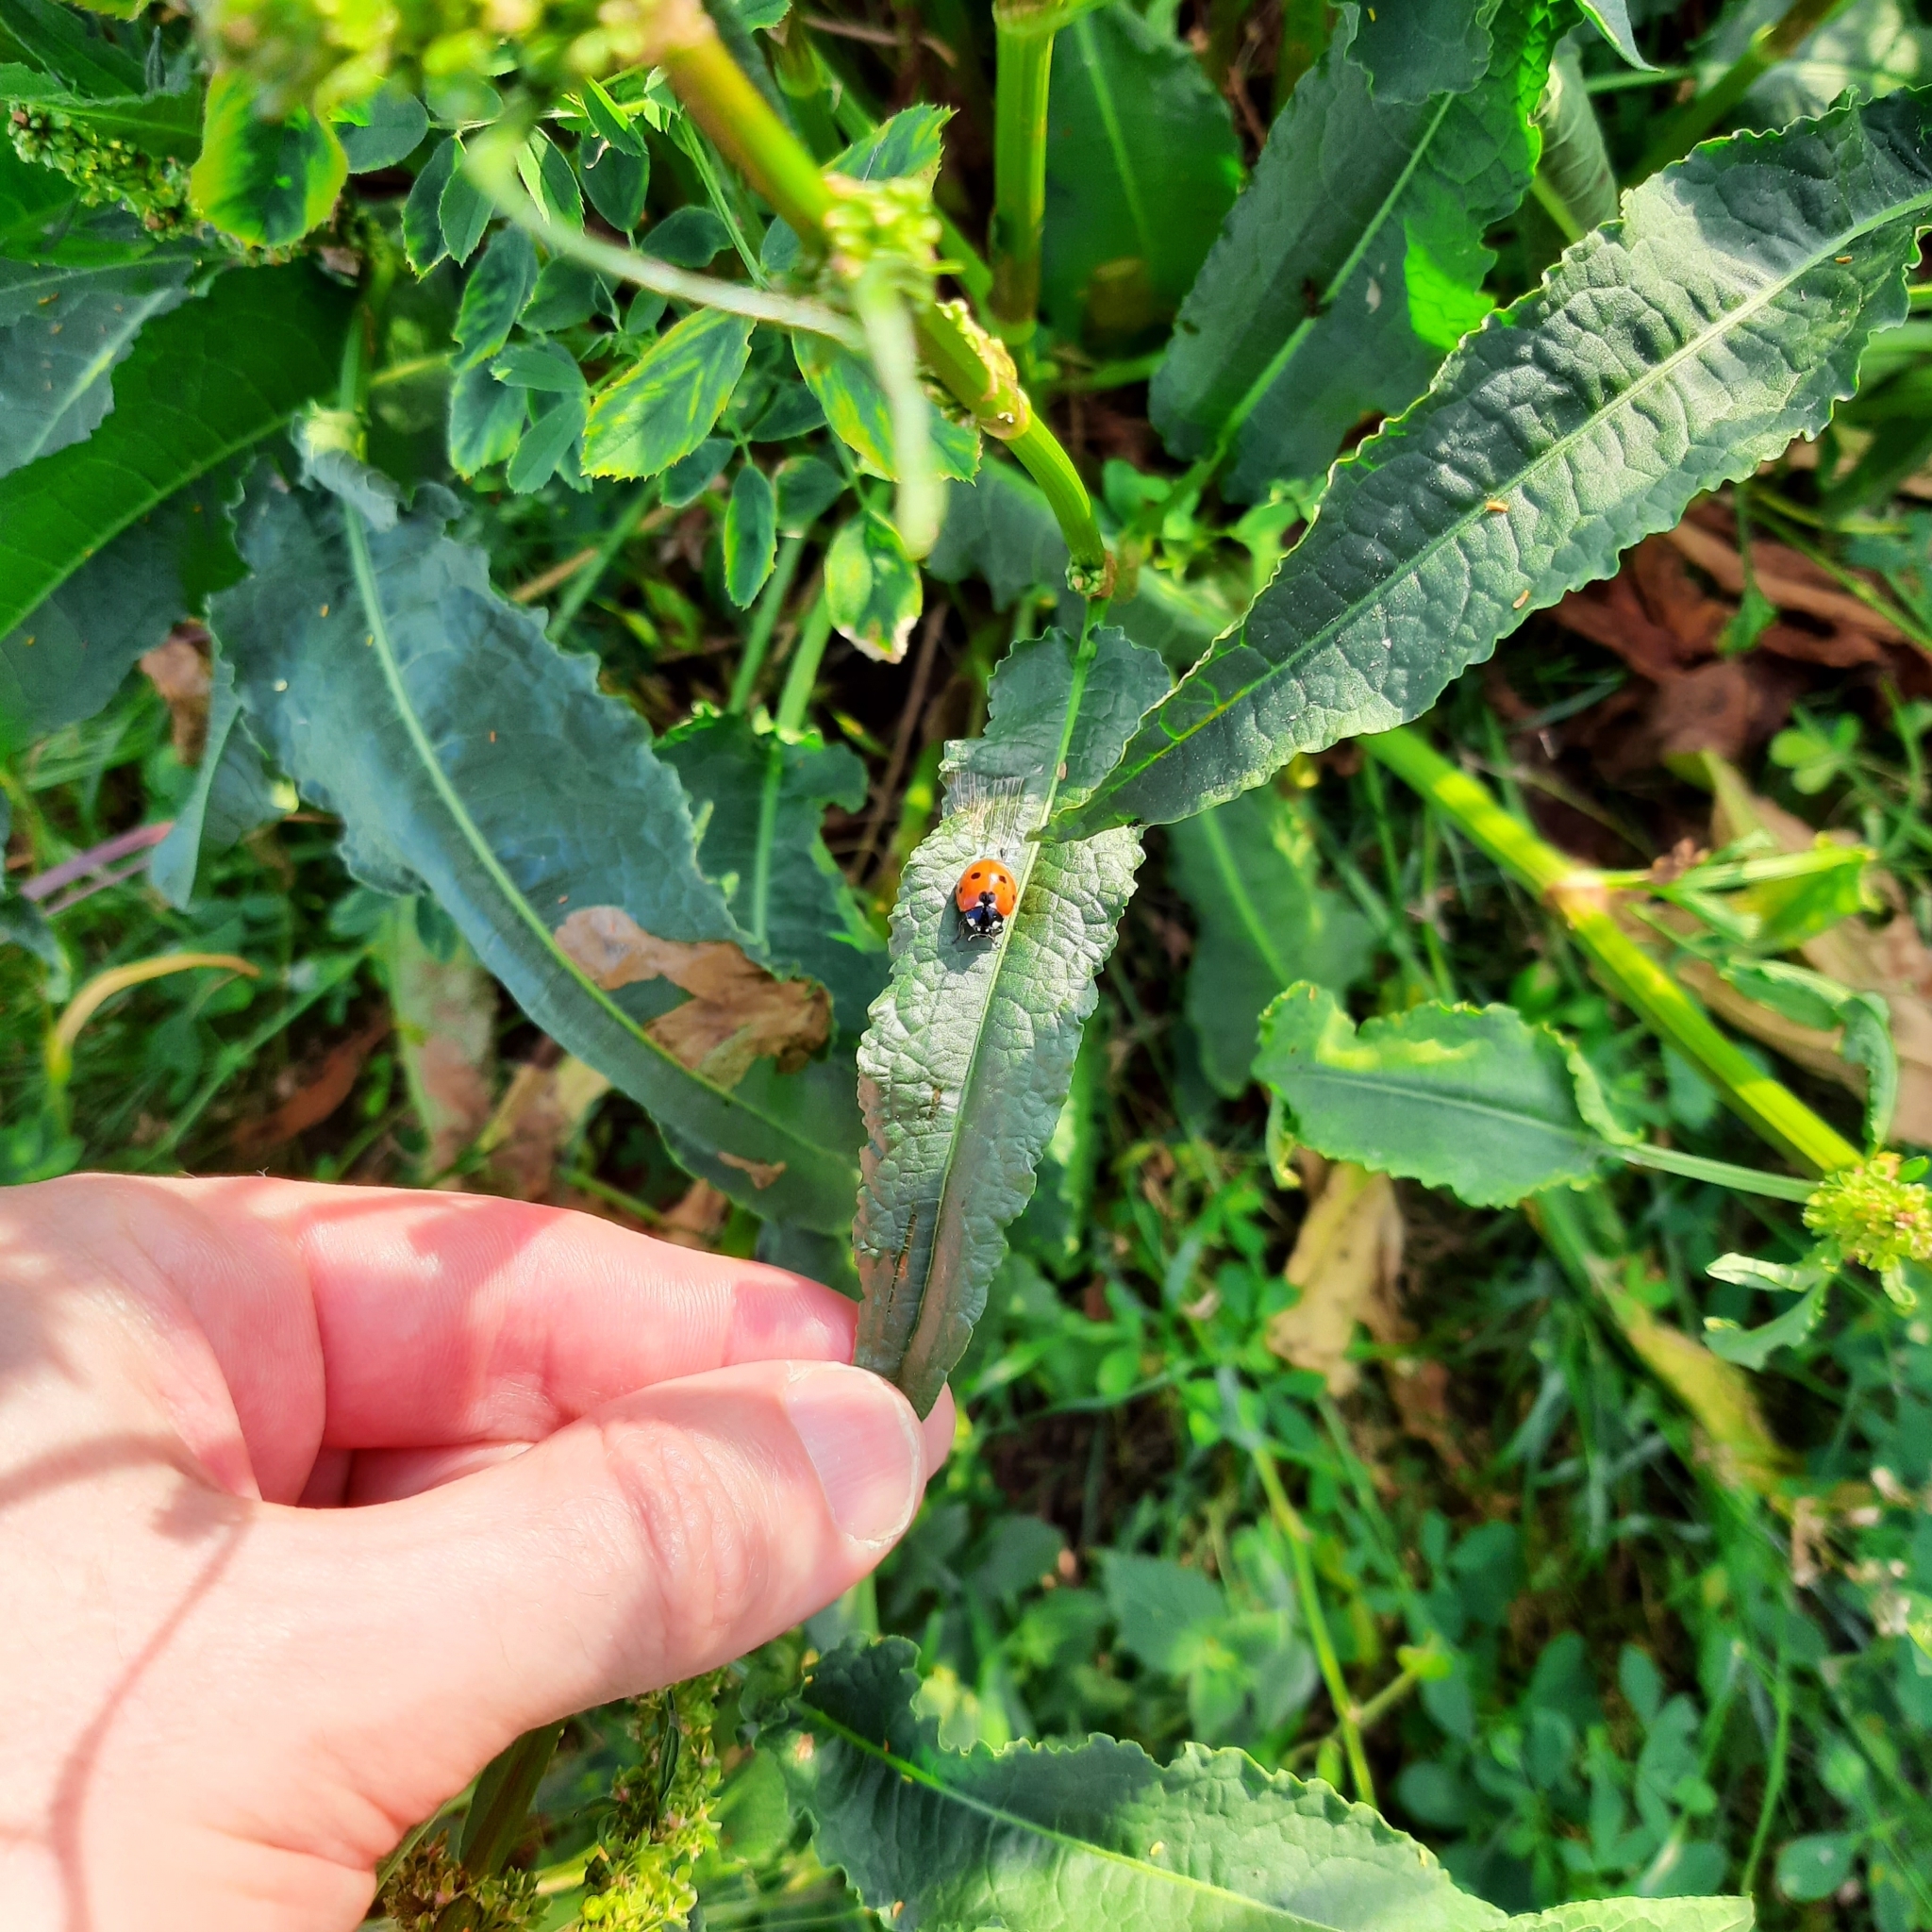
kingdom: Animalia
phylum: Arthropoda
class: Insecta
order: Coleoptera
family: Coccinellidae
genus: Coccinella
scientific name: Coccinella septempunctata
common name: Sevenspotted lady beetle
